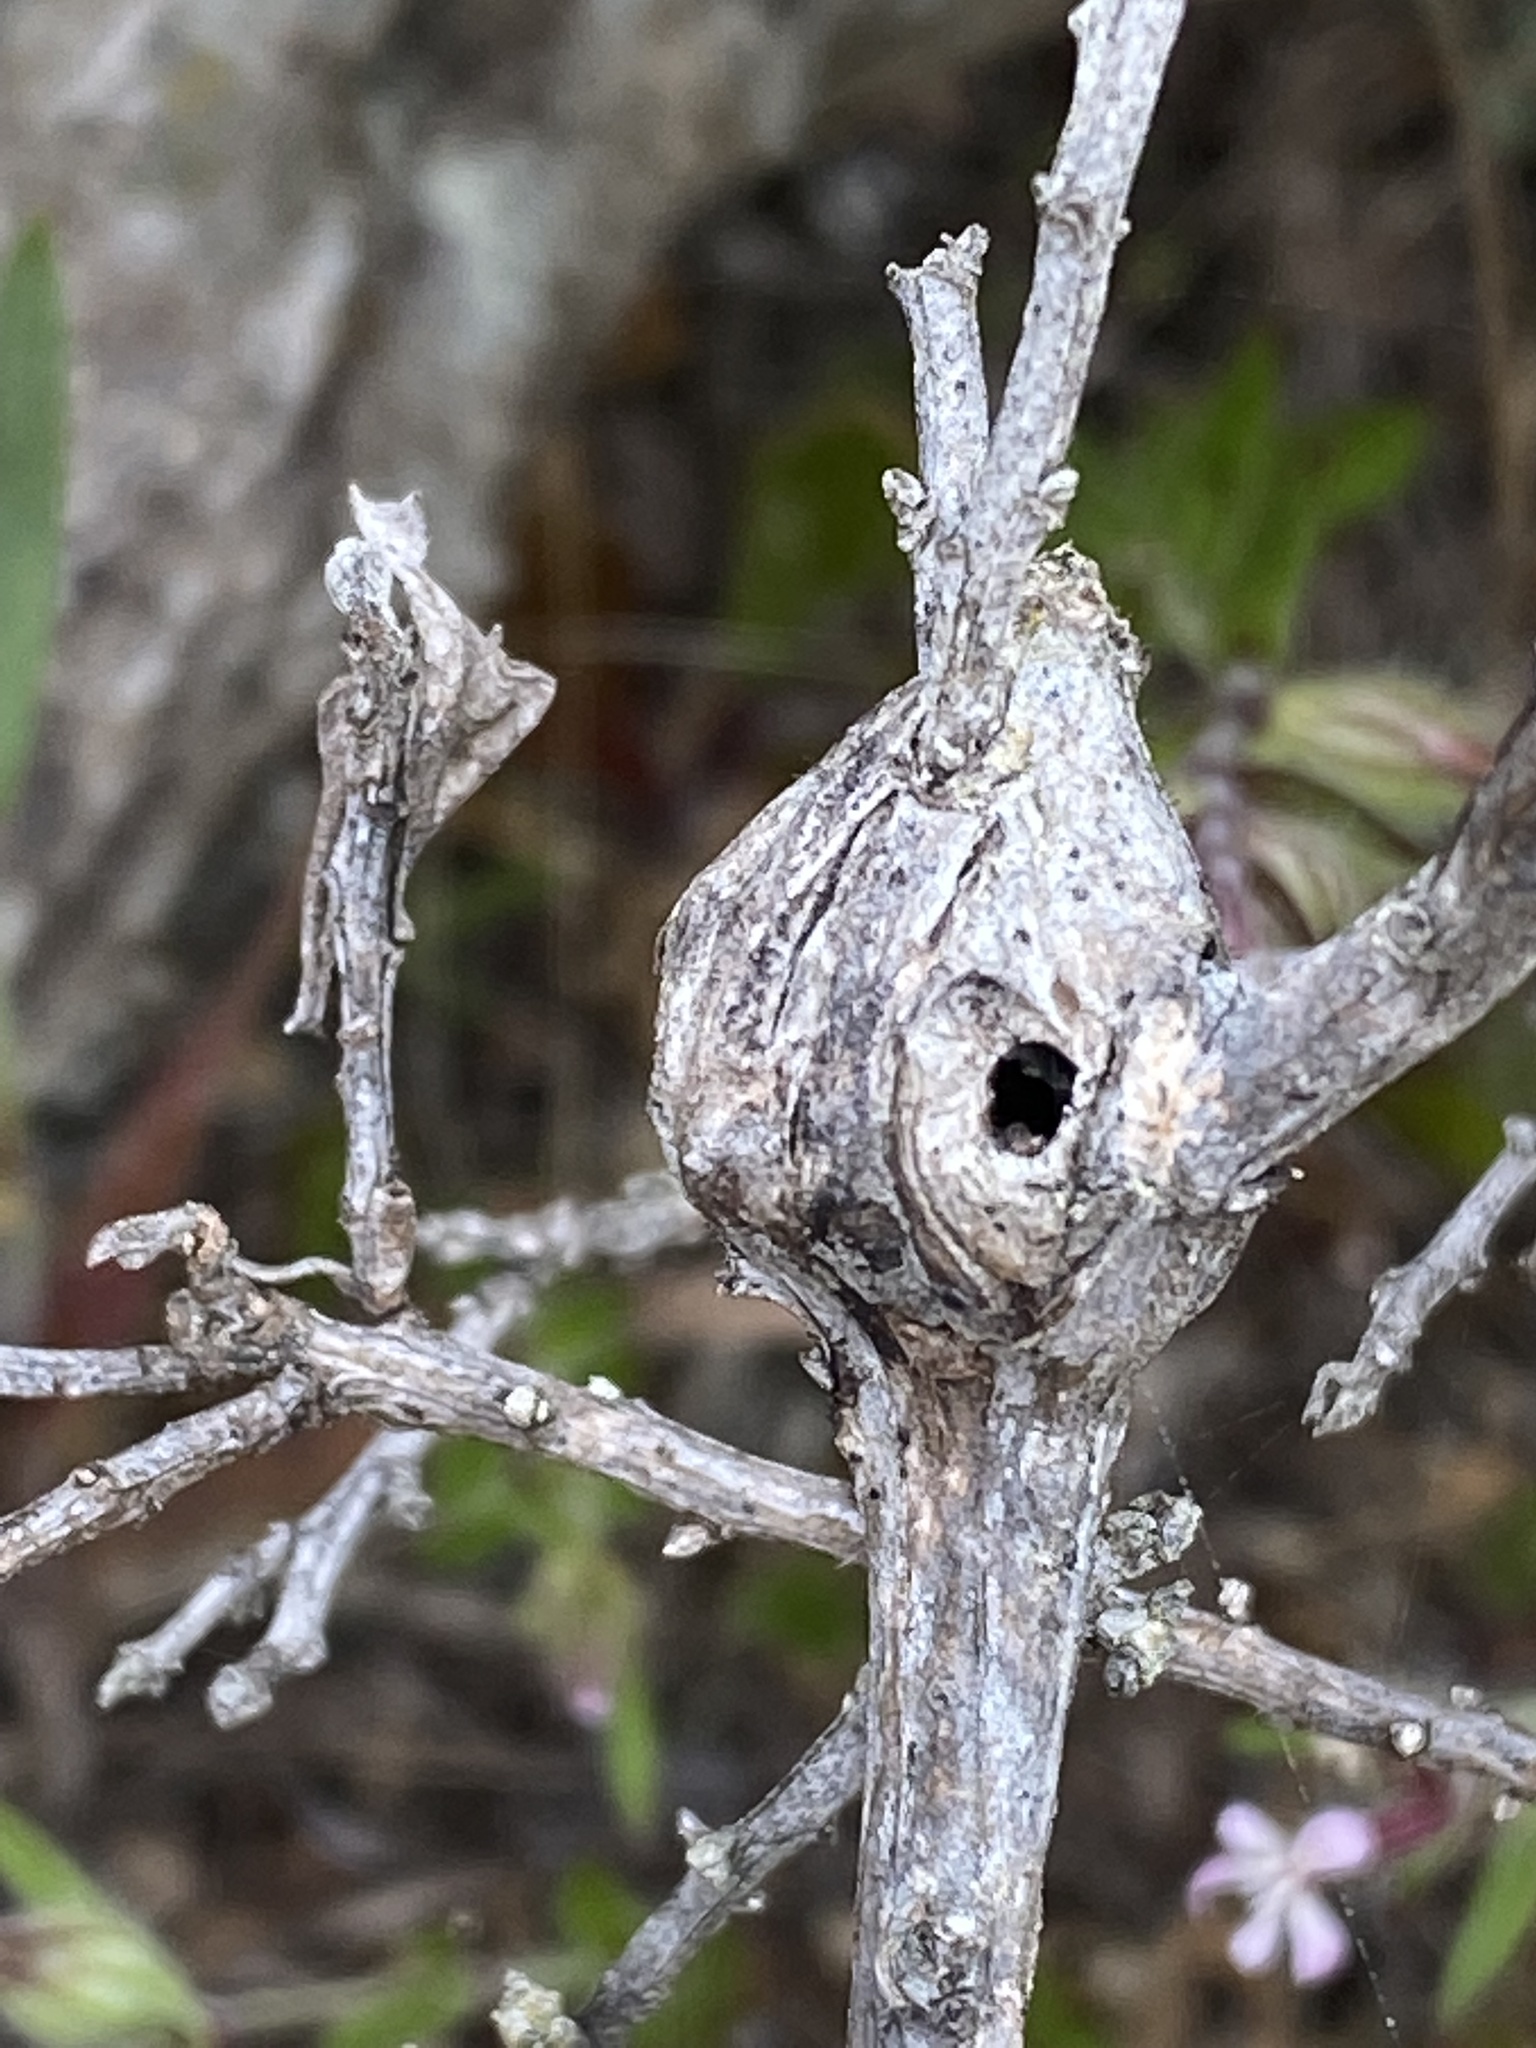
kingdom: Animalia
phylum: Arthropoda
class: Insecta
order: Lepidoptera
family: Gelechiidae
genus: Gnorimoschema
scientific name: Gnorimoschema baccharisella
